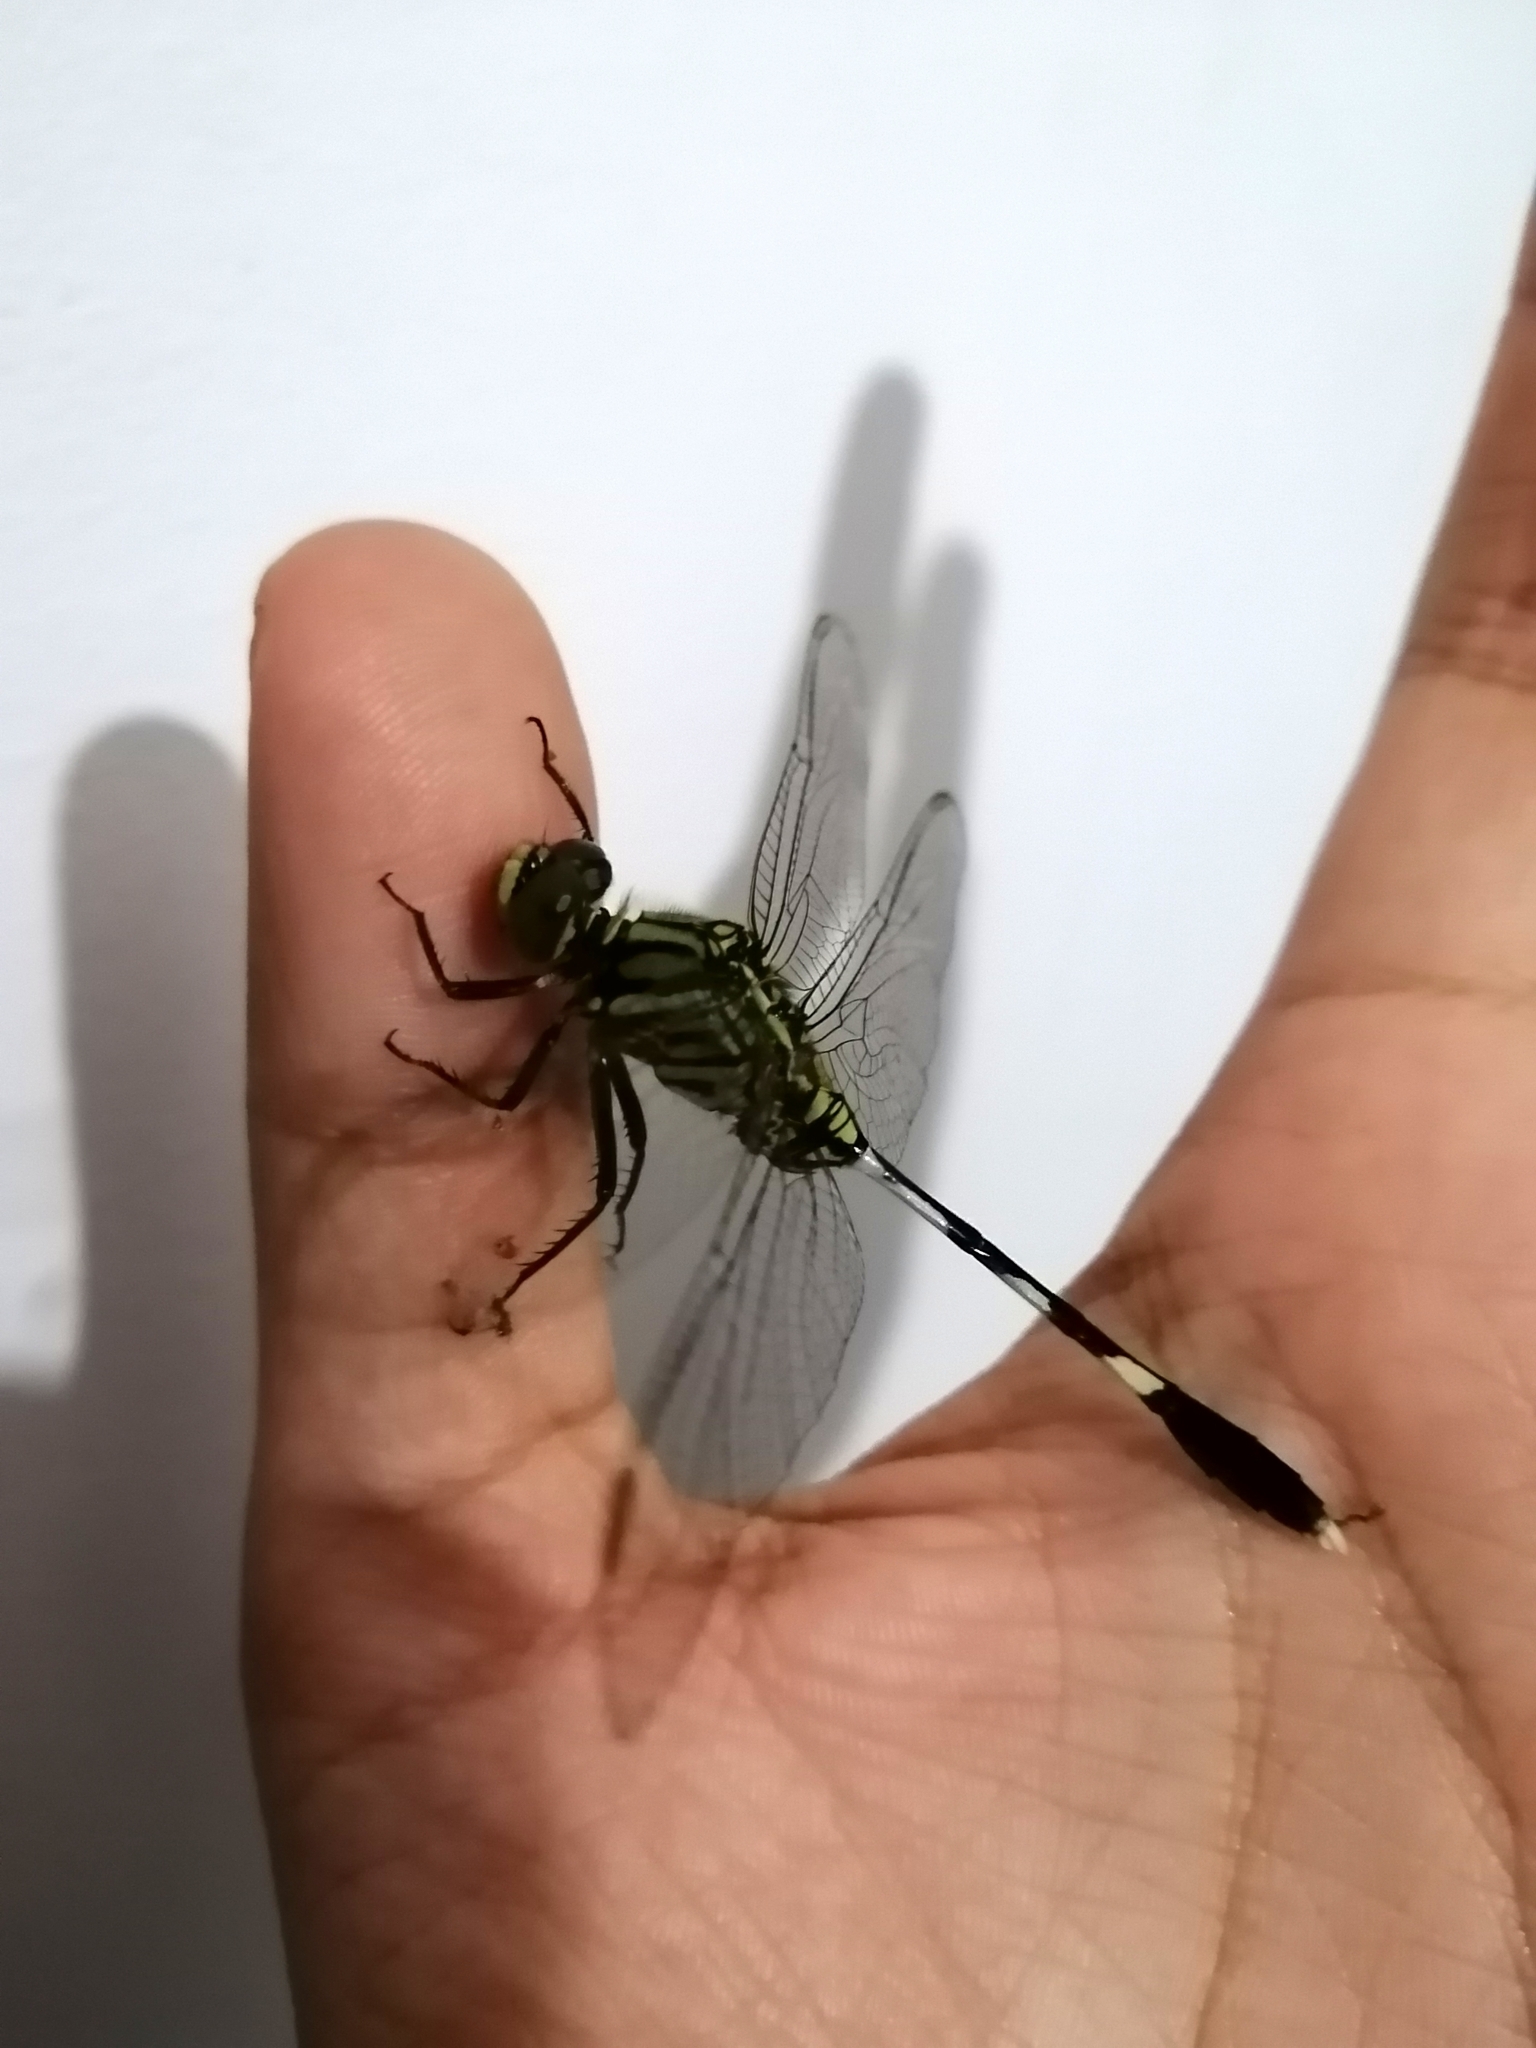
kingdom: Animalia
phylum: Arthropoda
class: Insecta
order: Odonata
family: Libellulidae
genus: Orthetrum
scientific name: Orthetrum sabina
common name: Slender skimmer
